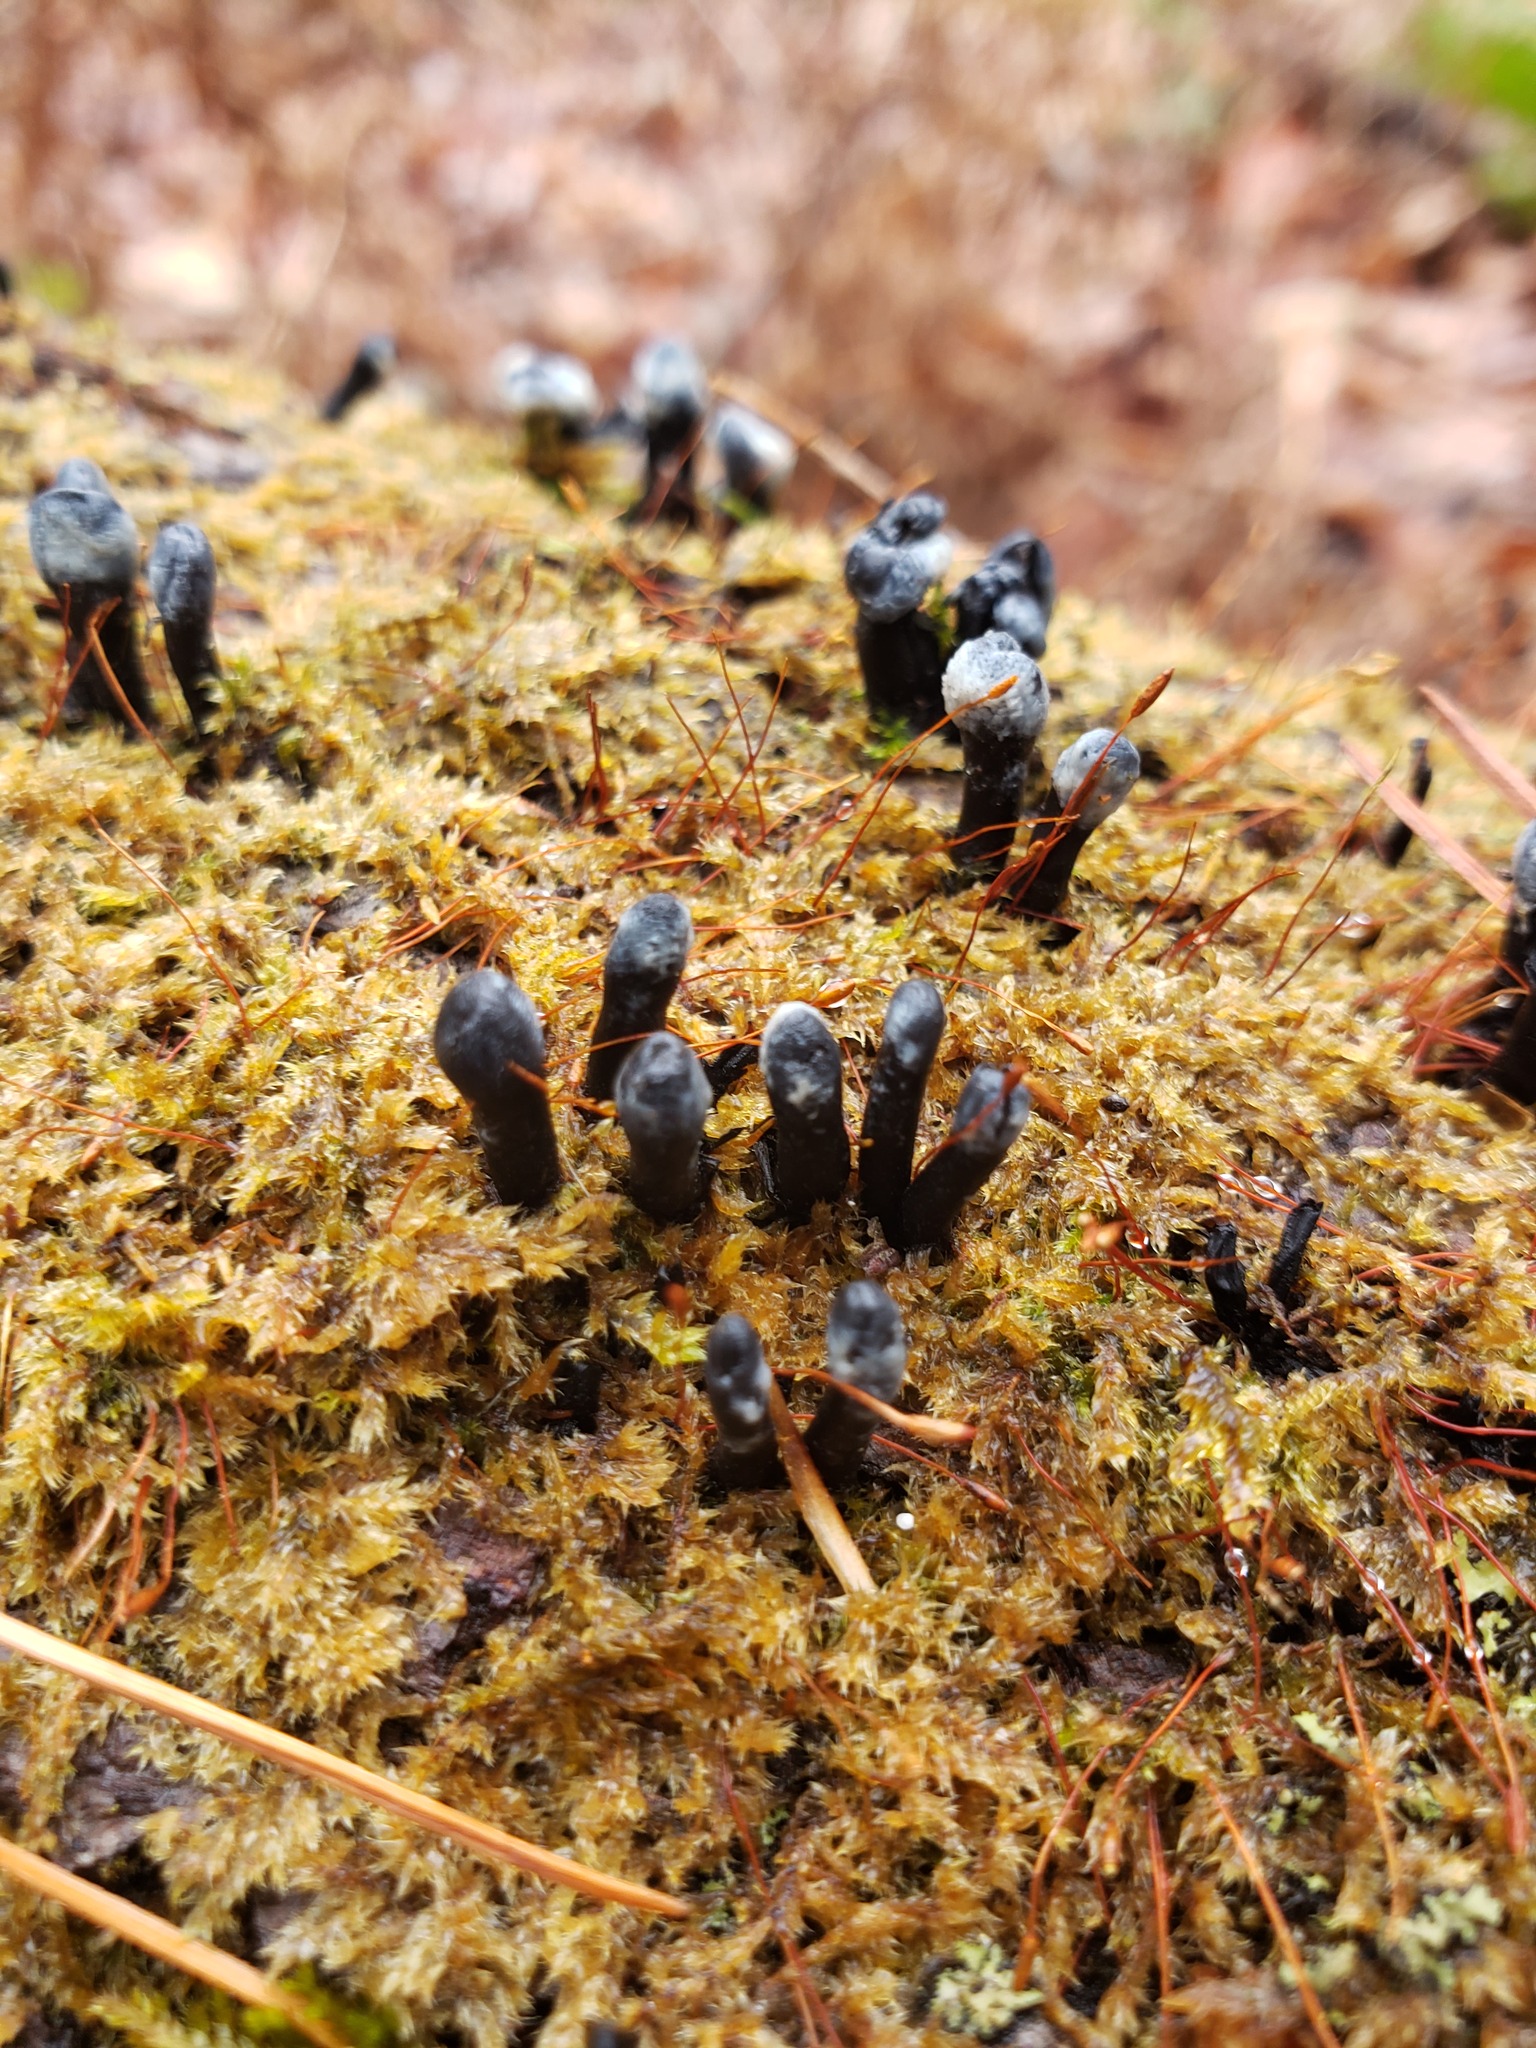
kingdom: Fungi
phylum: Ascomycota
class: Leotiomycetes
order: Helotiales
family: Bulgariaceae
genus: Holwaya
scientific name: Holwaya mucida
